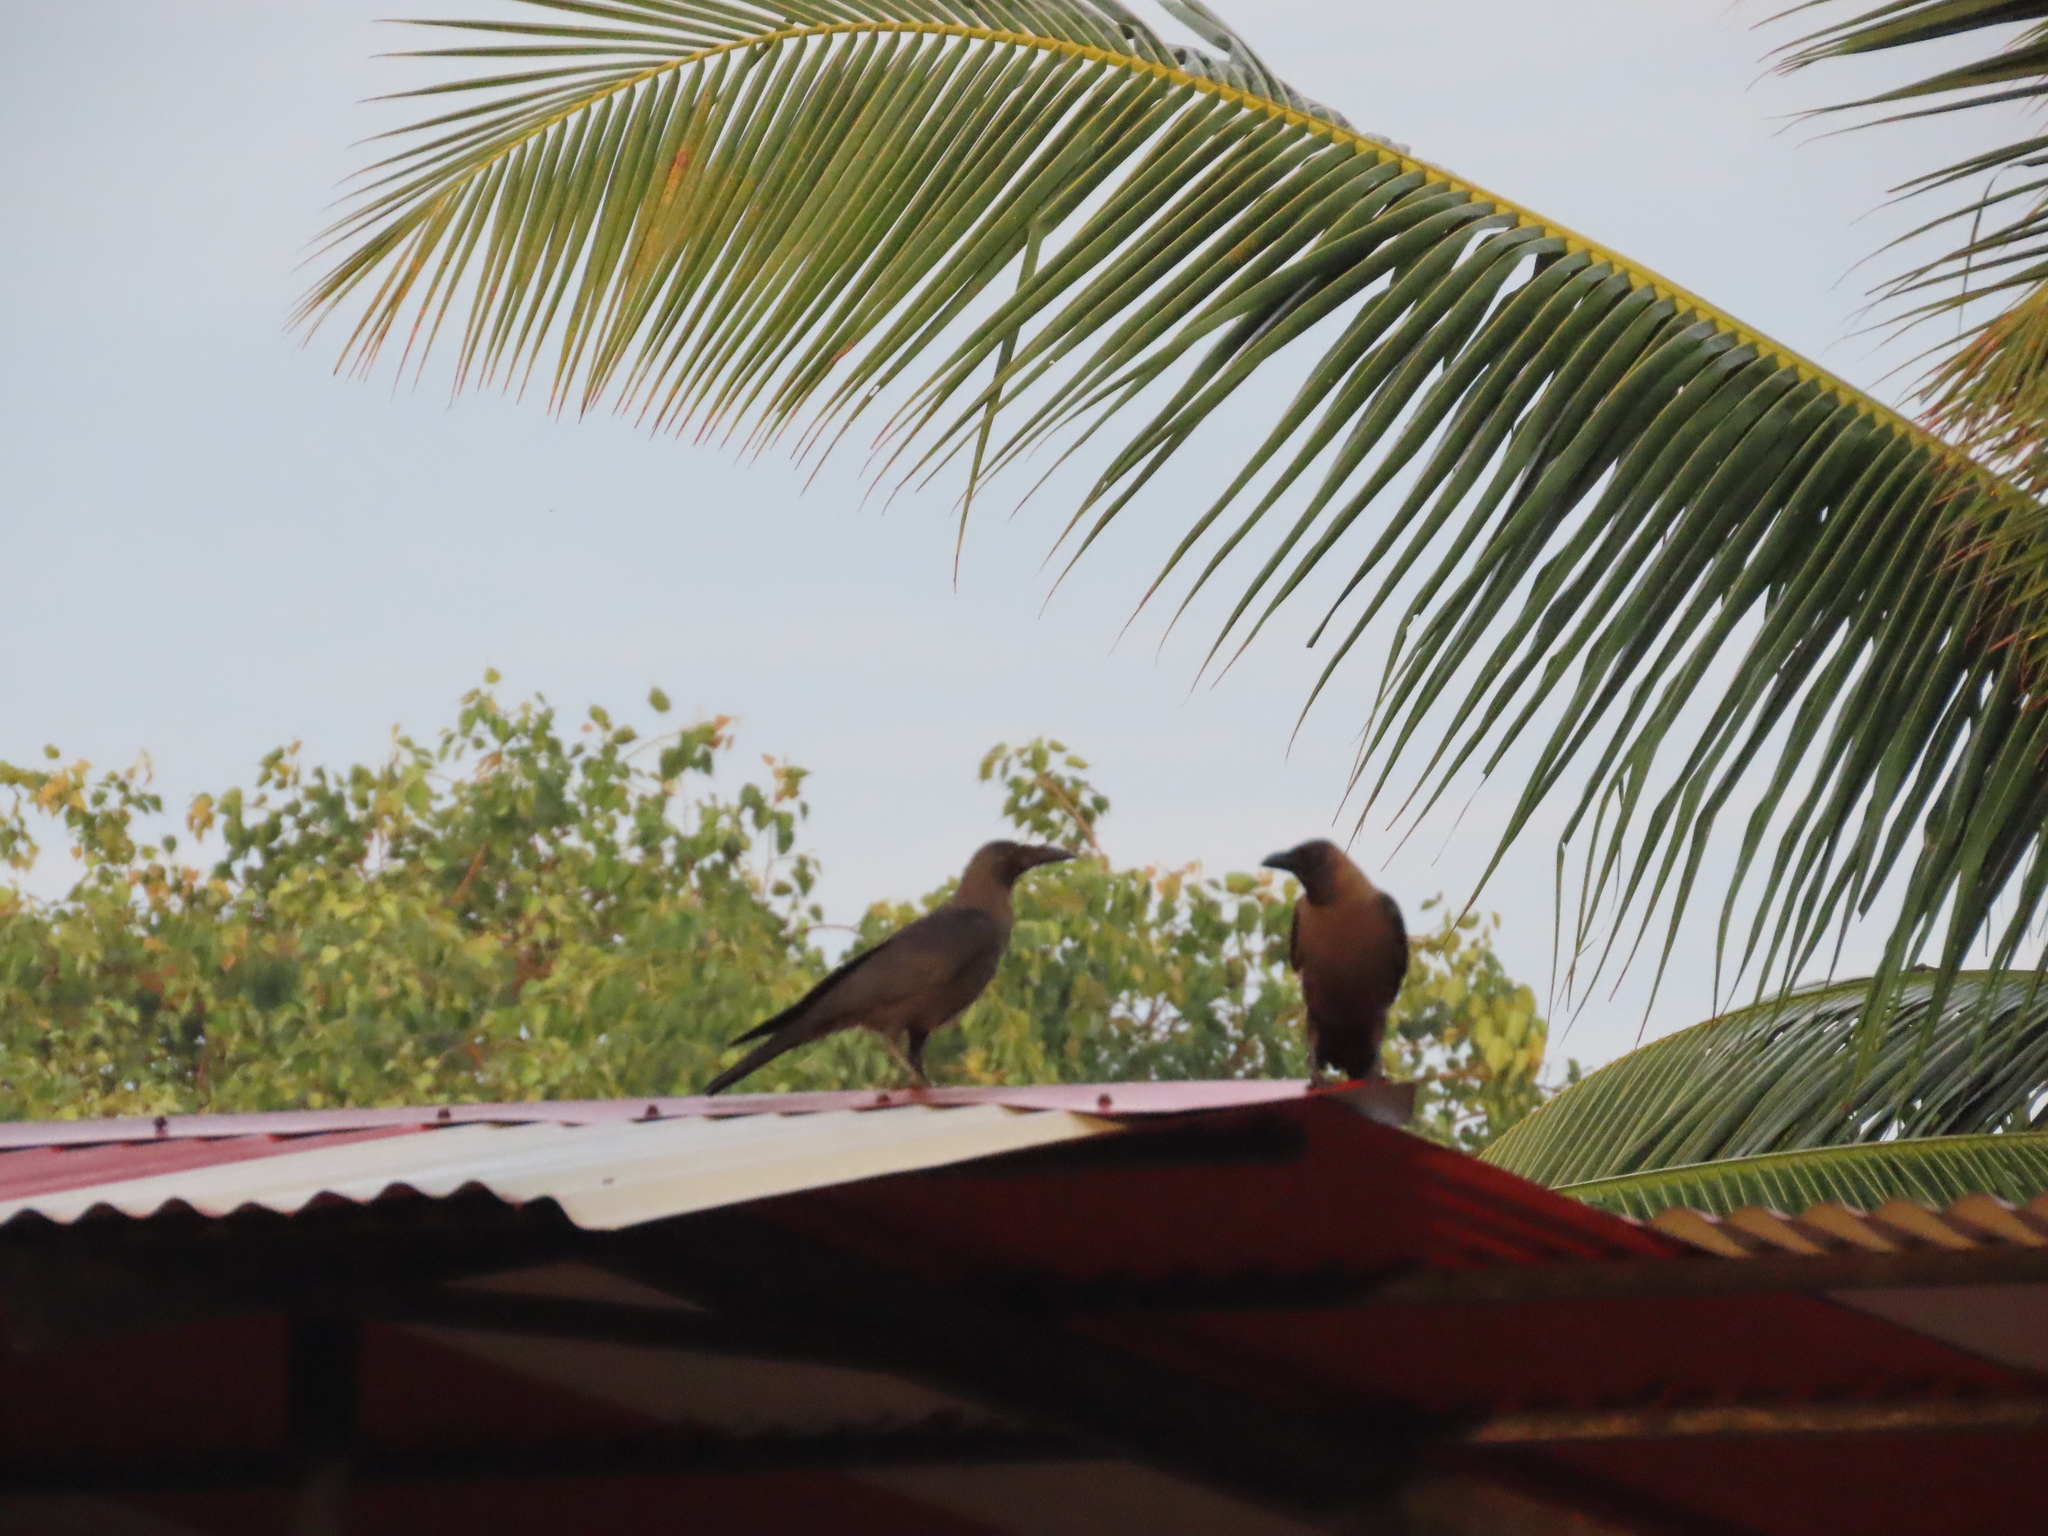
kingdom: Animalia
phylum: Chordata
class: Aves
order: Passeriformes
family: Corvidae
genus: Corvus
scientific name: Corvus splendens
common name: House crow
